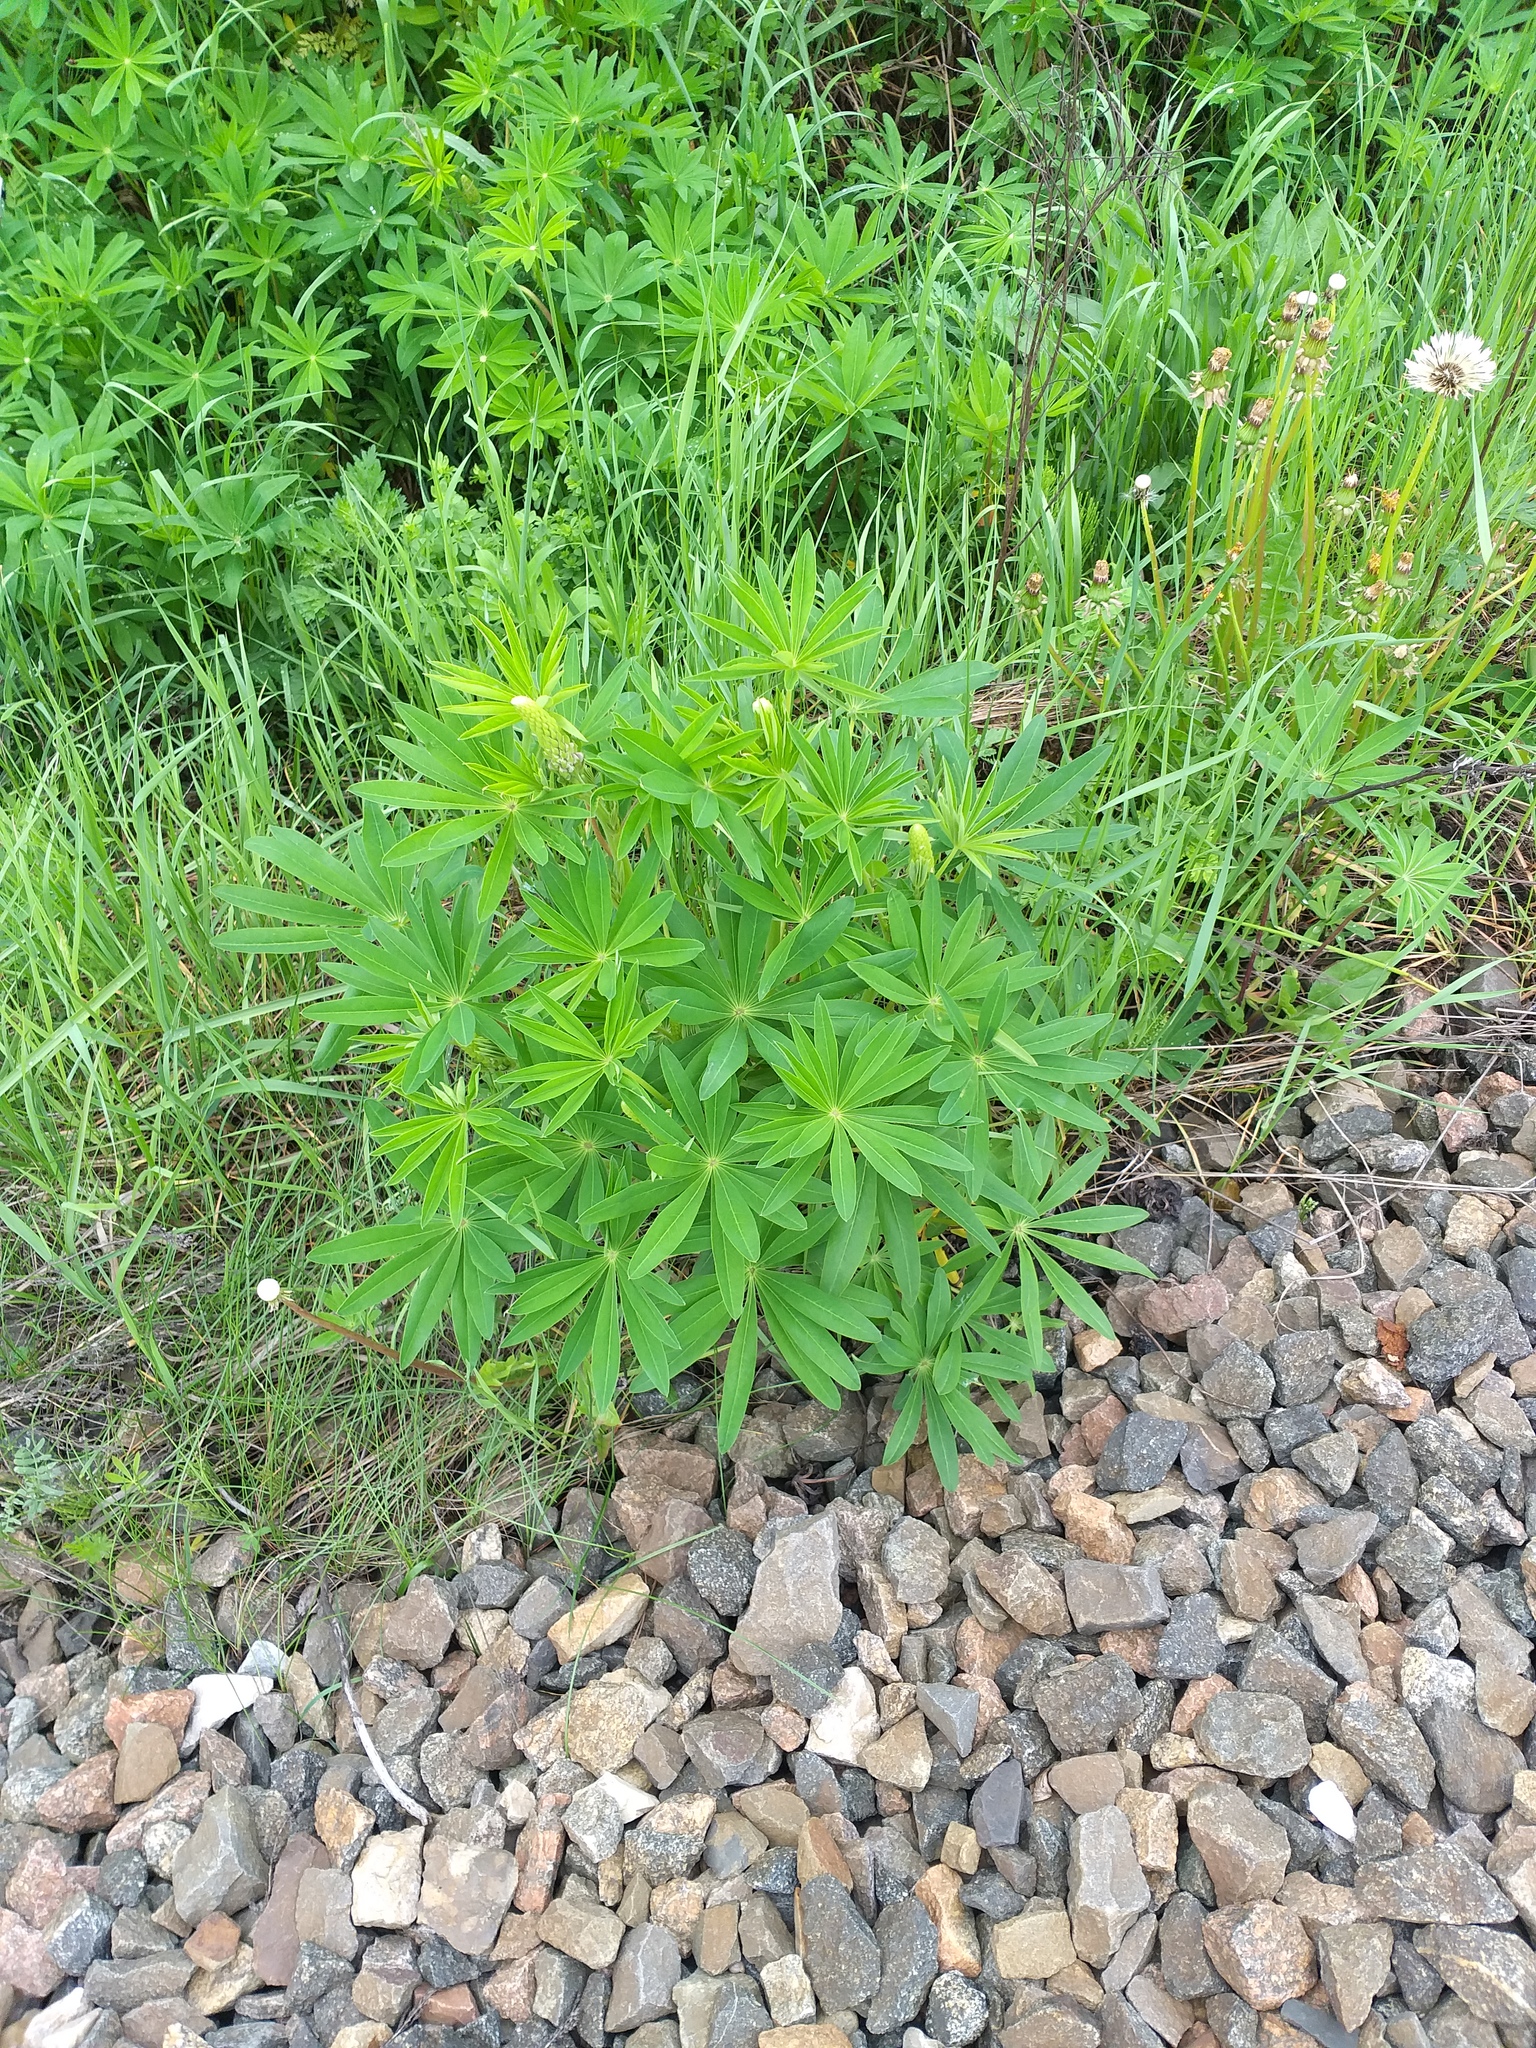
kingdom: Plantae
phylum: Tracheophyta
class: Magnoliopsida
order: Fabales
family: Fabaceae
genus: Lupinus
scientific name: Lupinus polyphyllus
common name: Garden lupin
